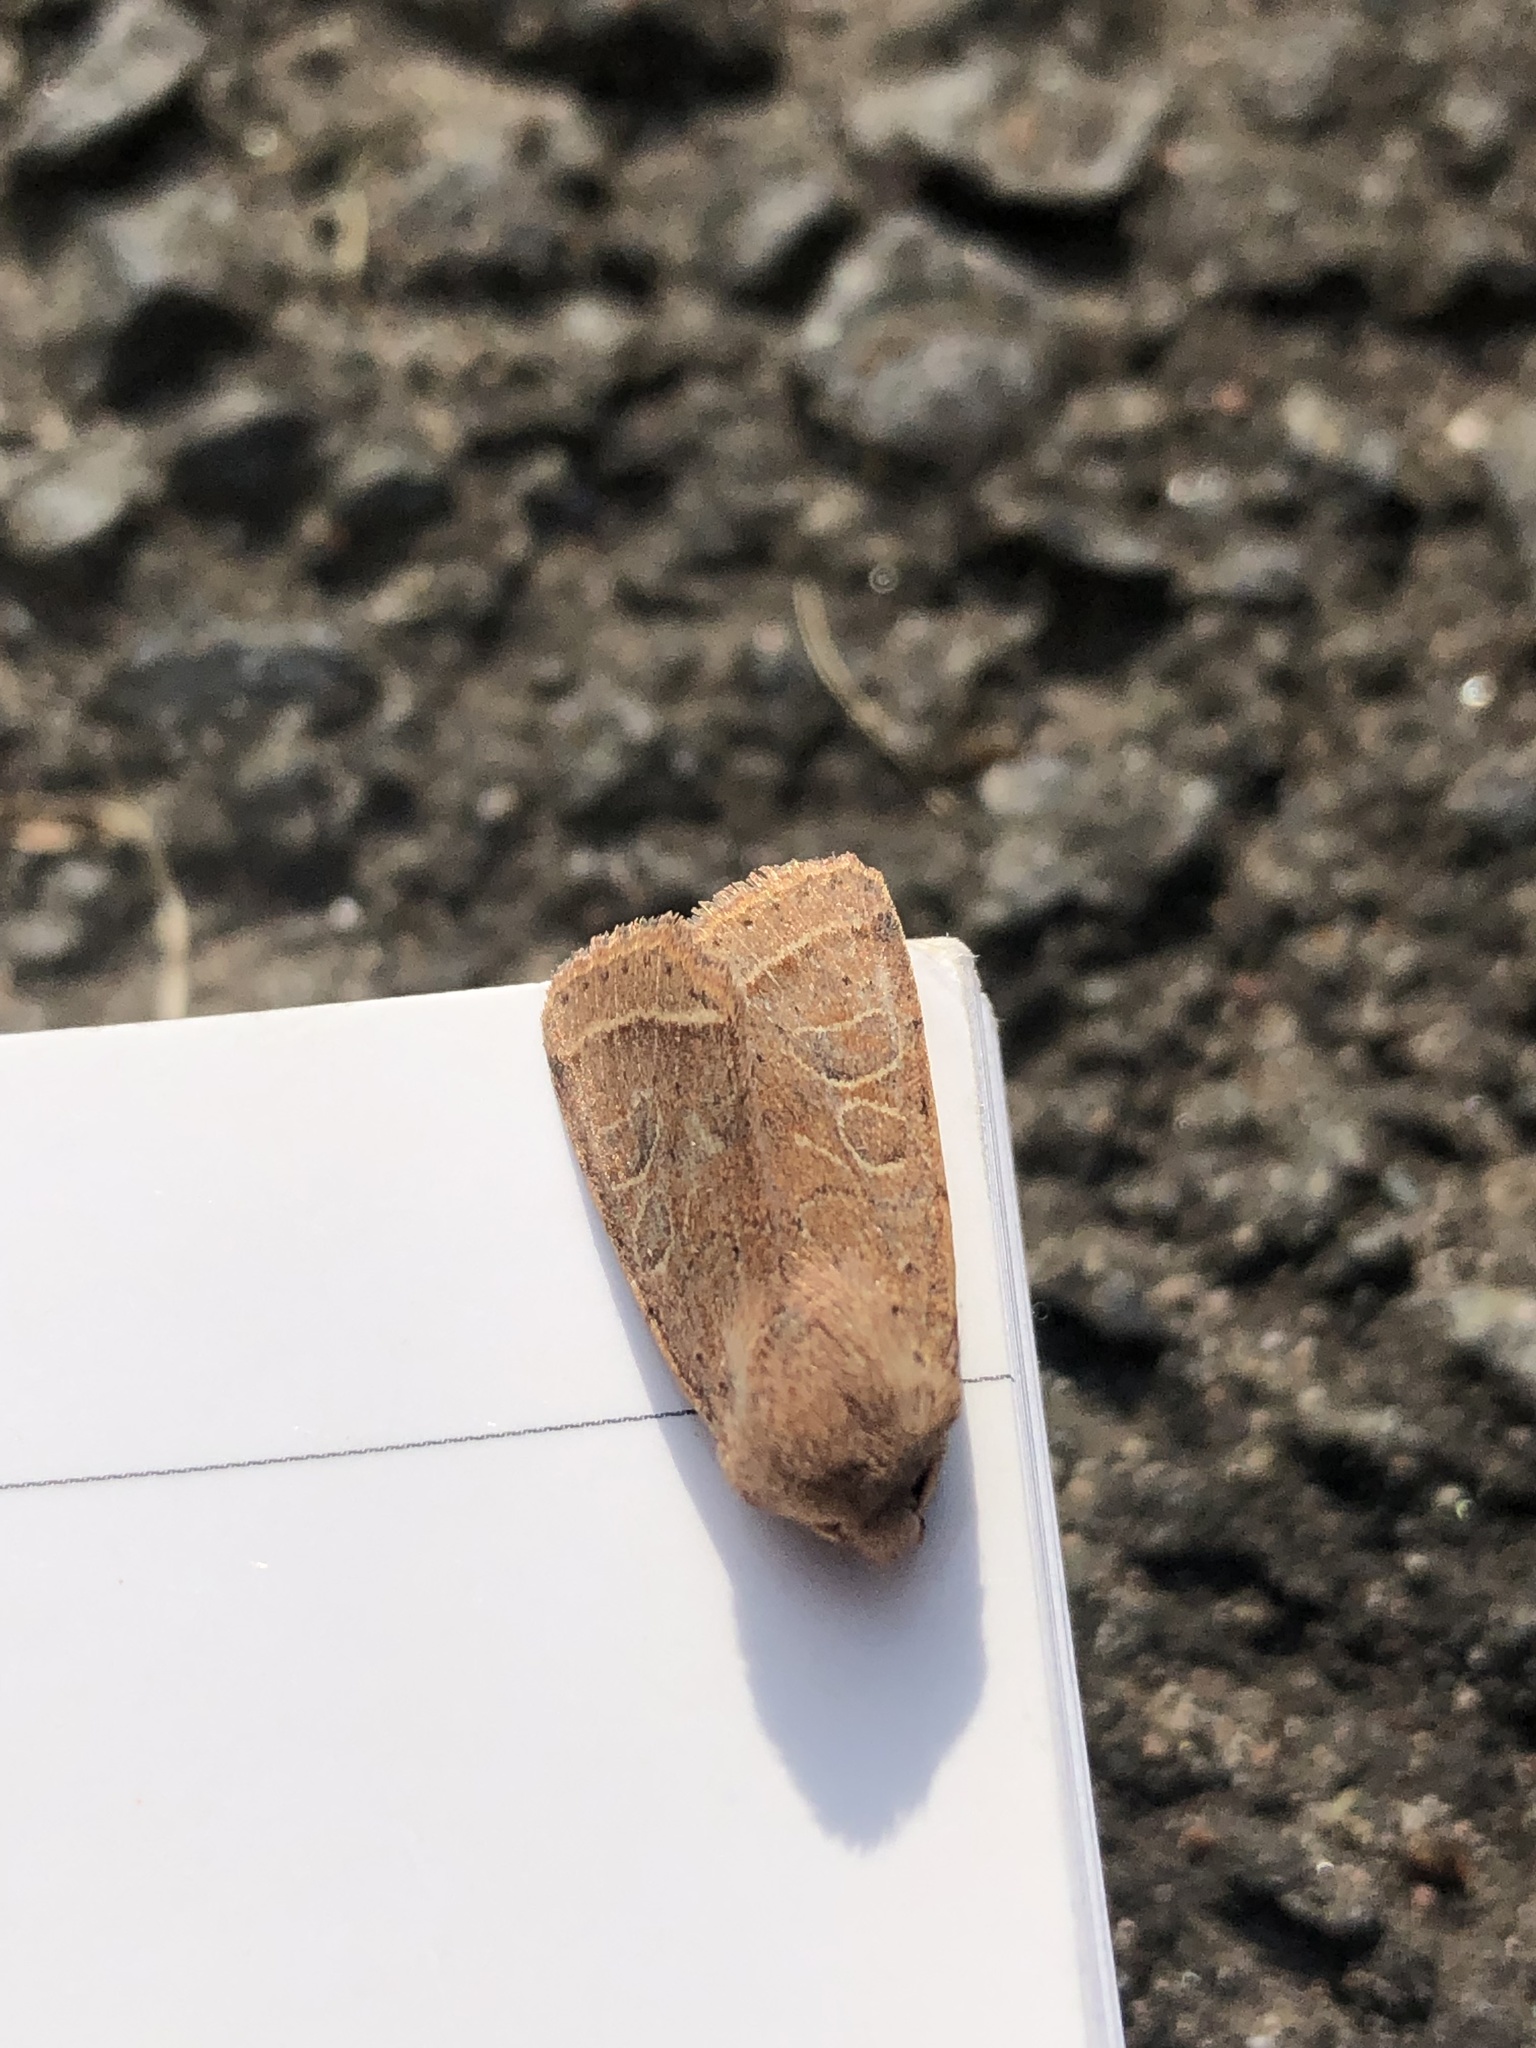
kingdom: Animalia
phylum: Arthropoda
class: Insecta
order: Lepidoptera
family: Noctuidae
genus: Orthosia
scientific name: Orthosia cerasi
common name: Common quaker
